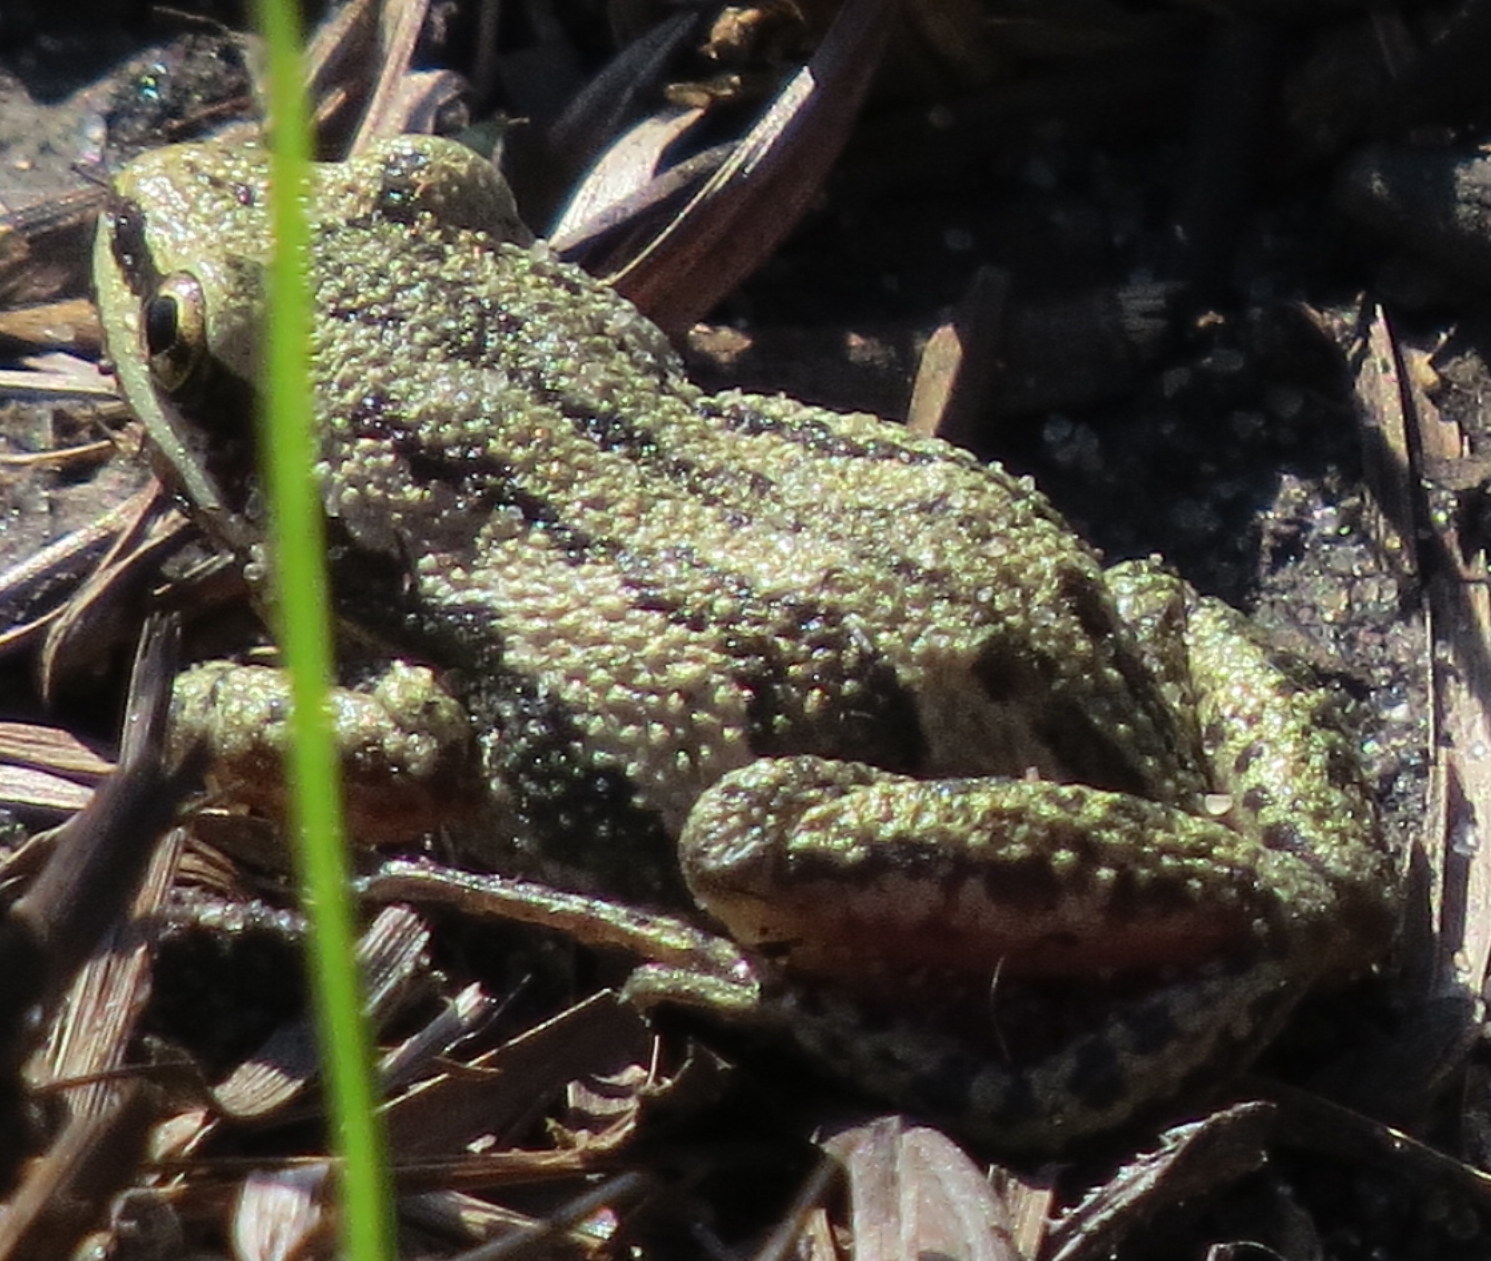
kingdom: Animalia
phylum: Chordata
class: Amphibia
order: Anura
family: Hylidae
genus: Pseudacris
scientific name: Pseudacris maculata
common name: Boreal chorus frog
